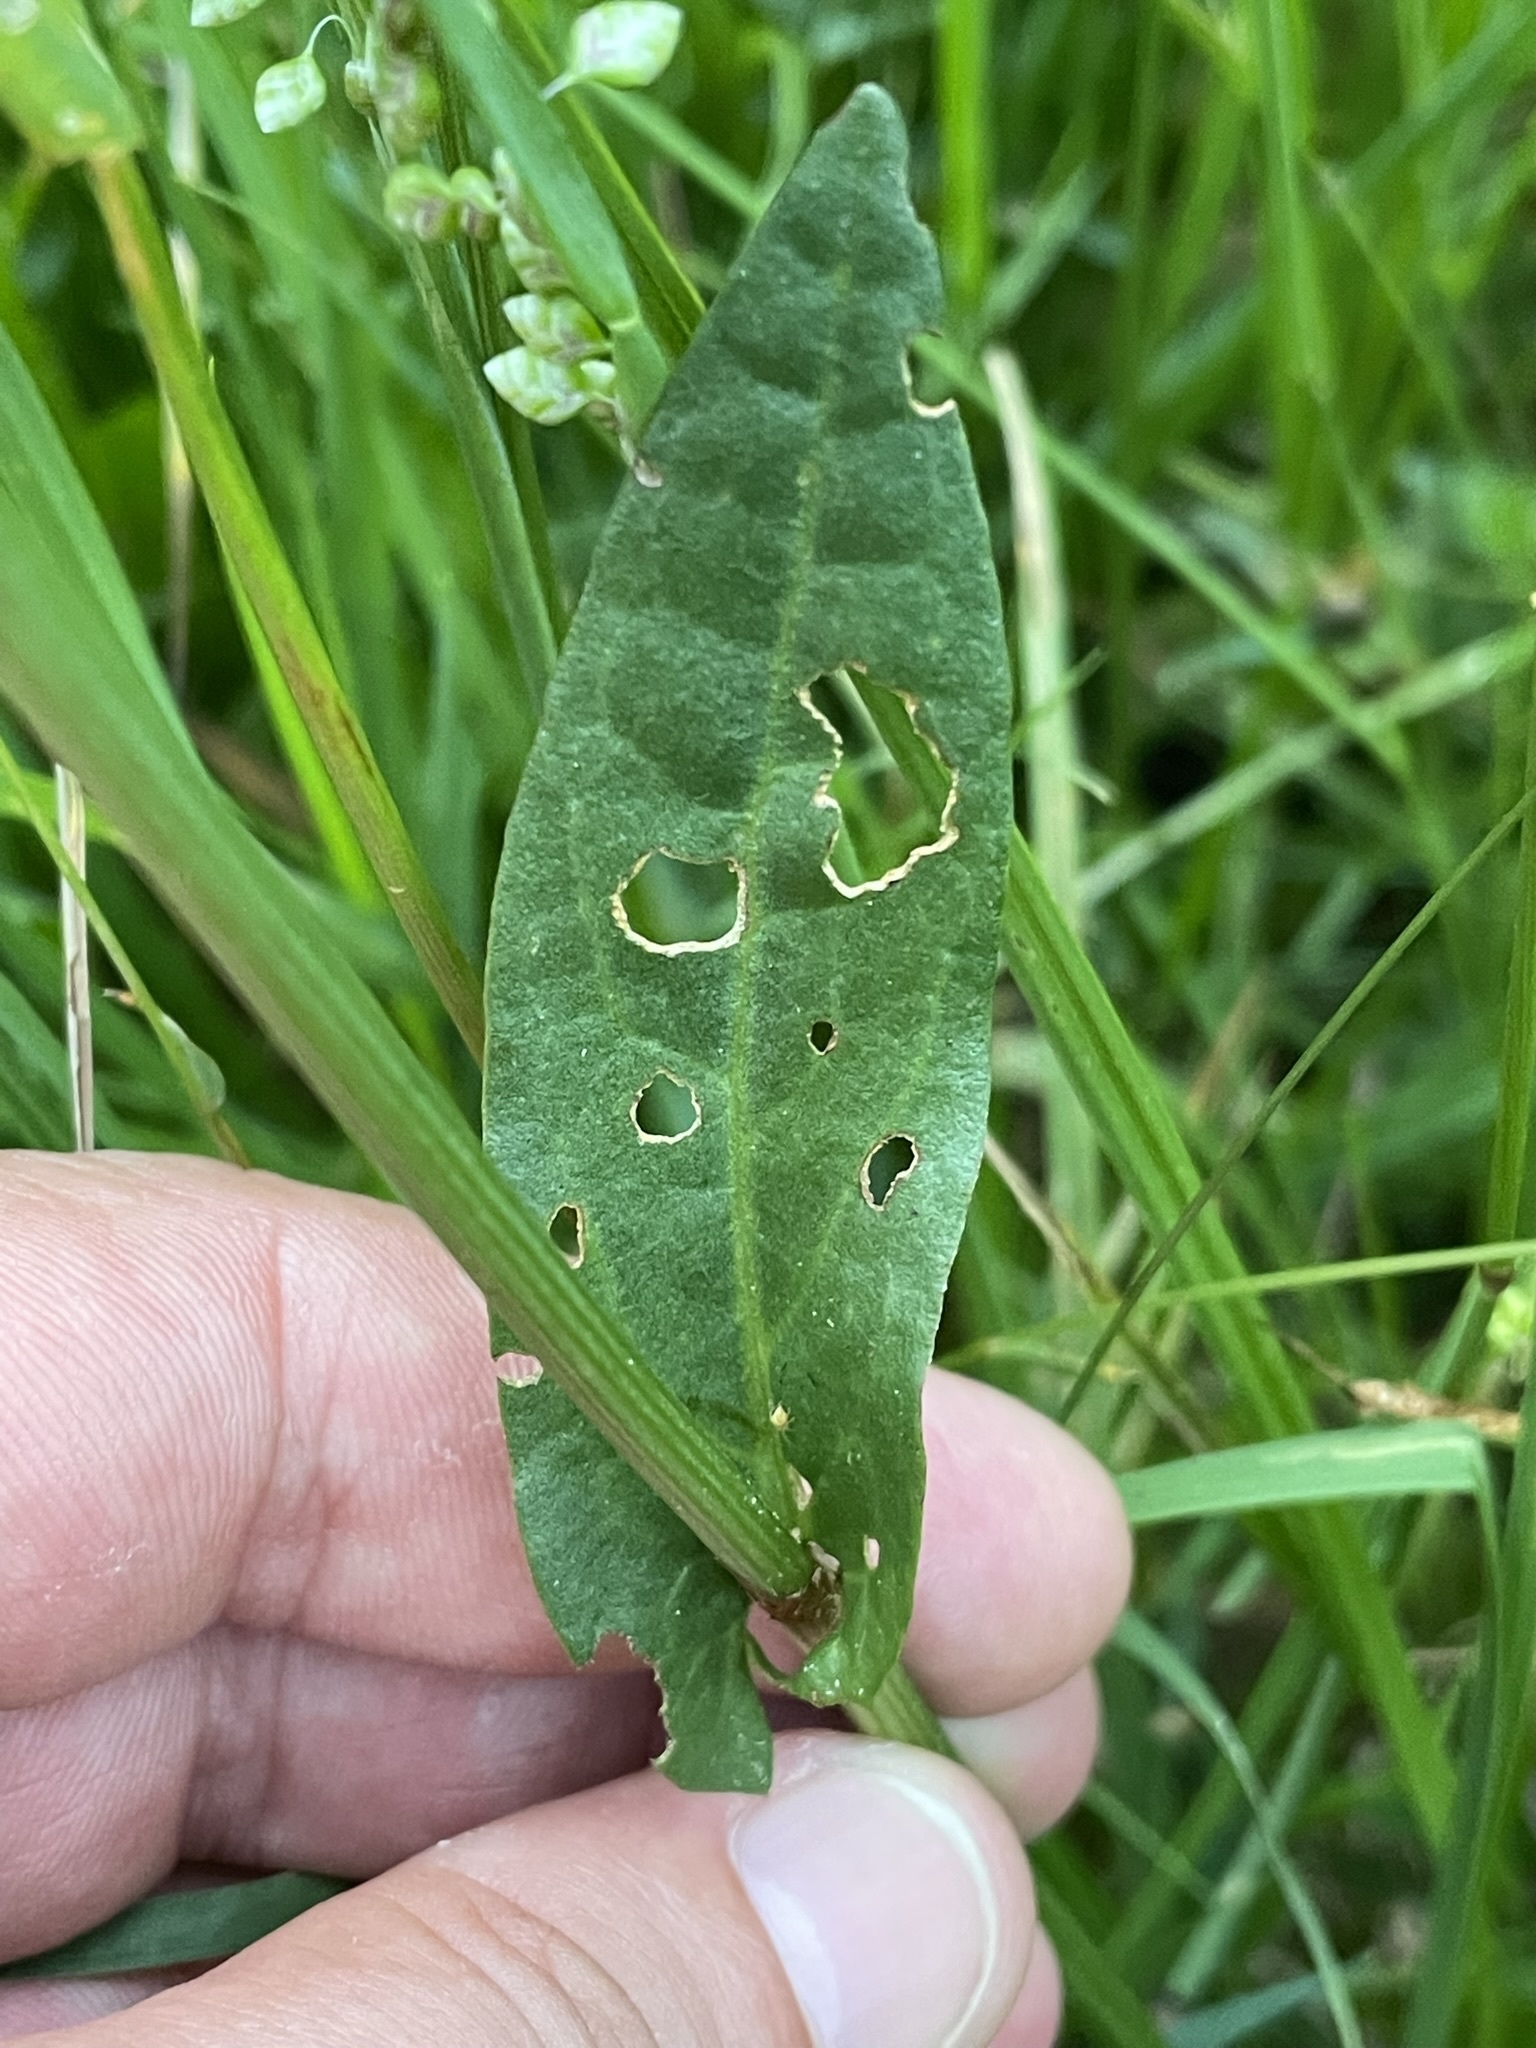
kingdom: Plantae
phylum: Tracheophyta
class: Magnoliopsida
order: Caryophyllales
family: Polygonaceae
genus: Rumex
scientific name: Rumex acetosa
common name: Garden sorrel
